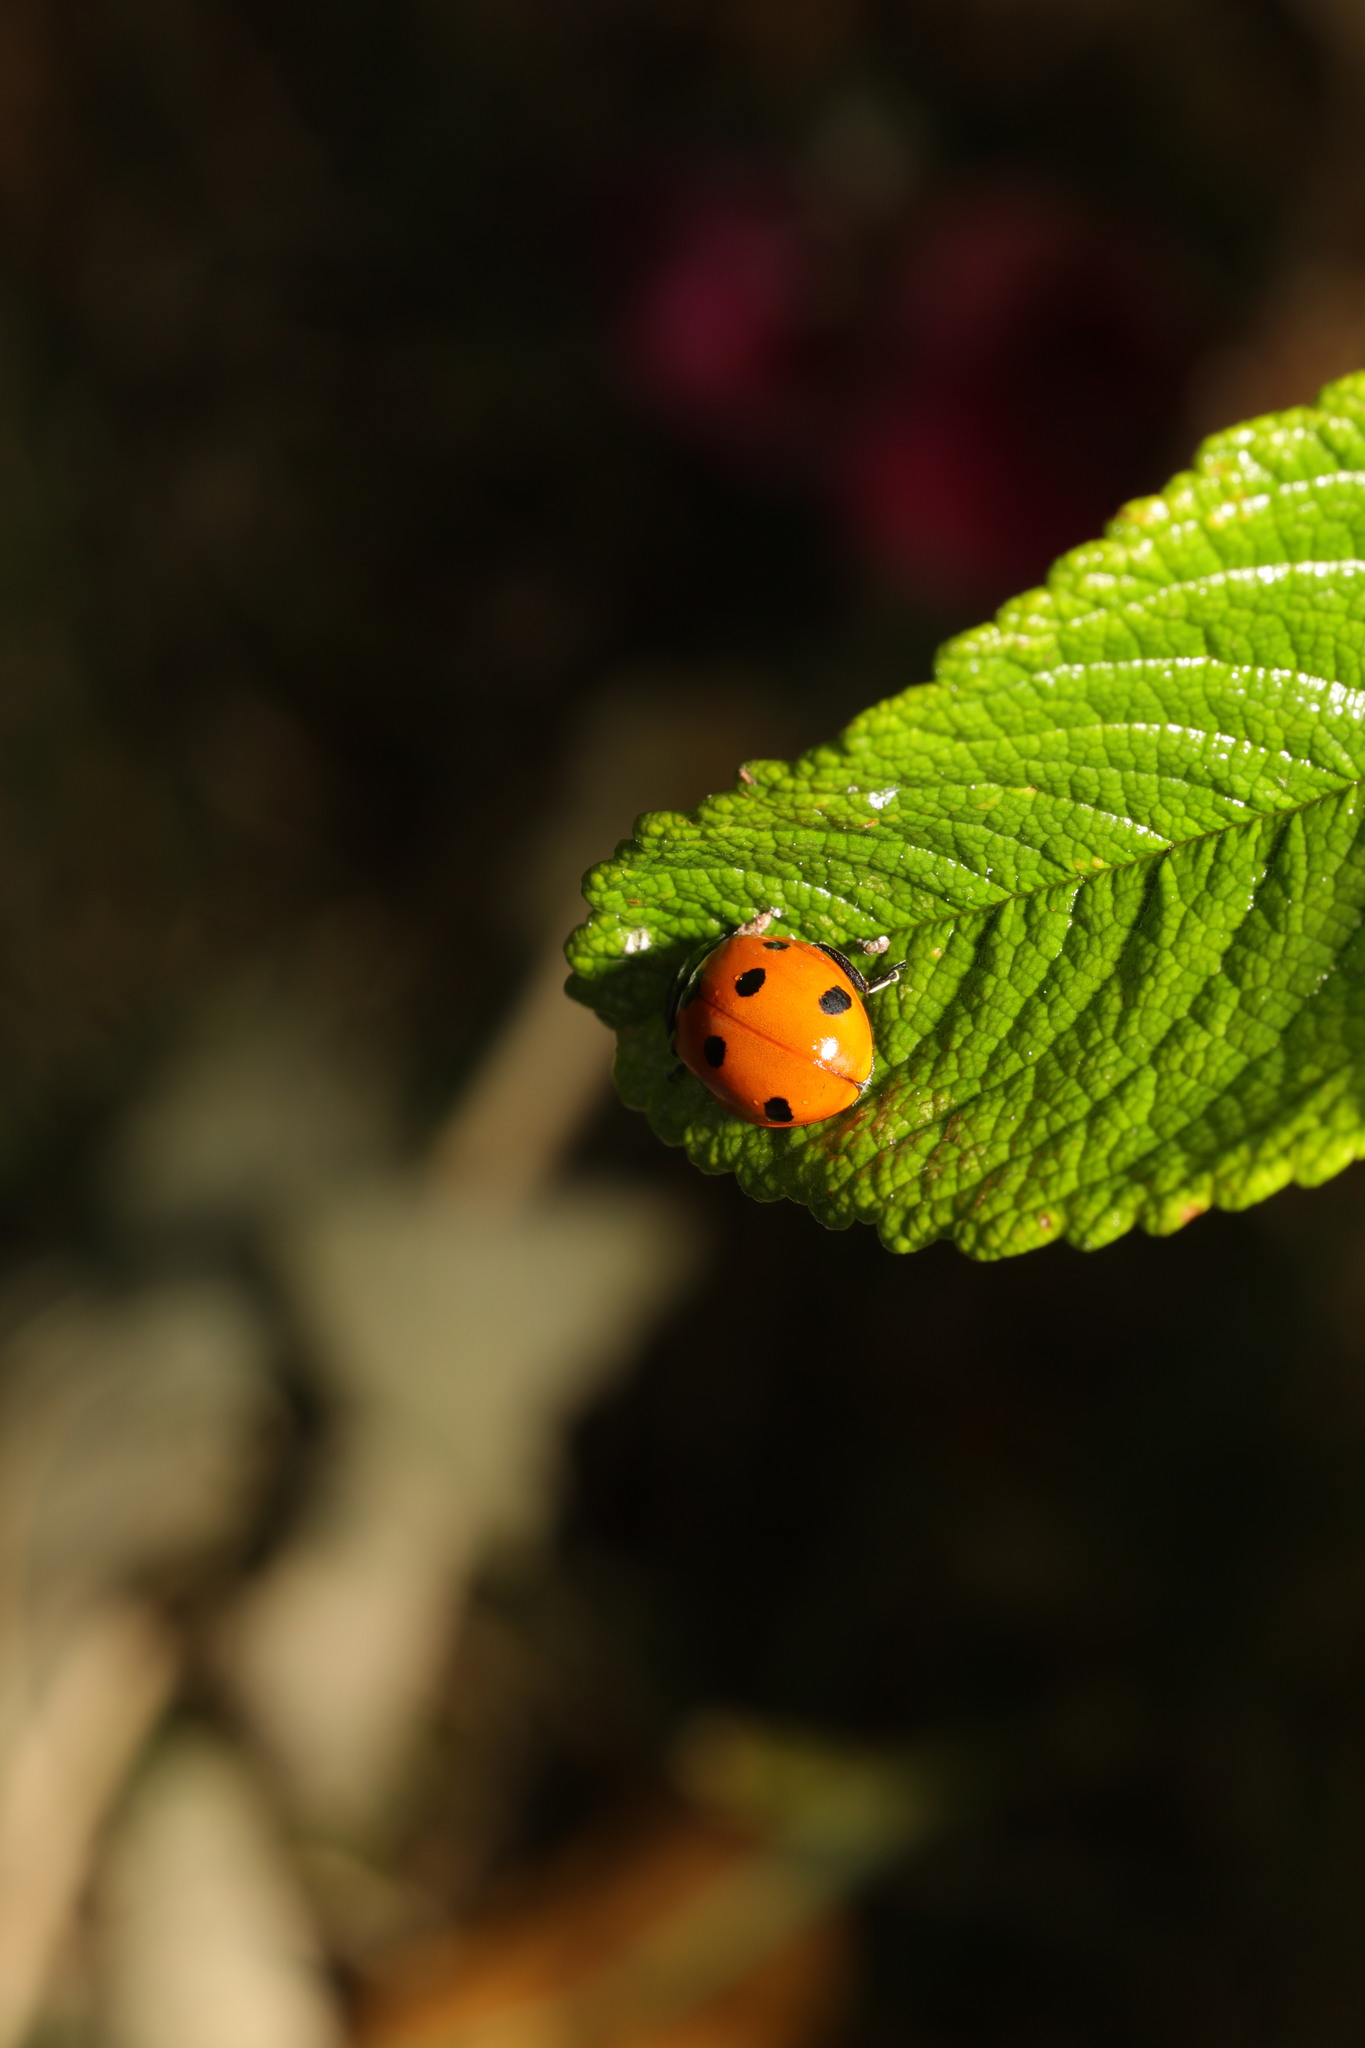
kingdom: Animalia
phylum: Arthropoda
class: Insecta
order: Coleoptera
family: Coccinellidae
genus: Coccinella
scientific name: Coccinella septempunctata
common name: Sevenspotted lady beetle
